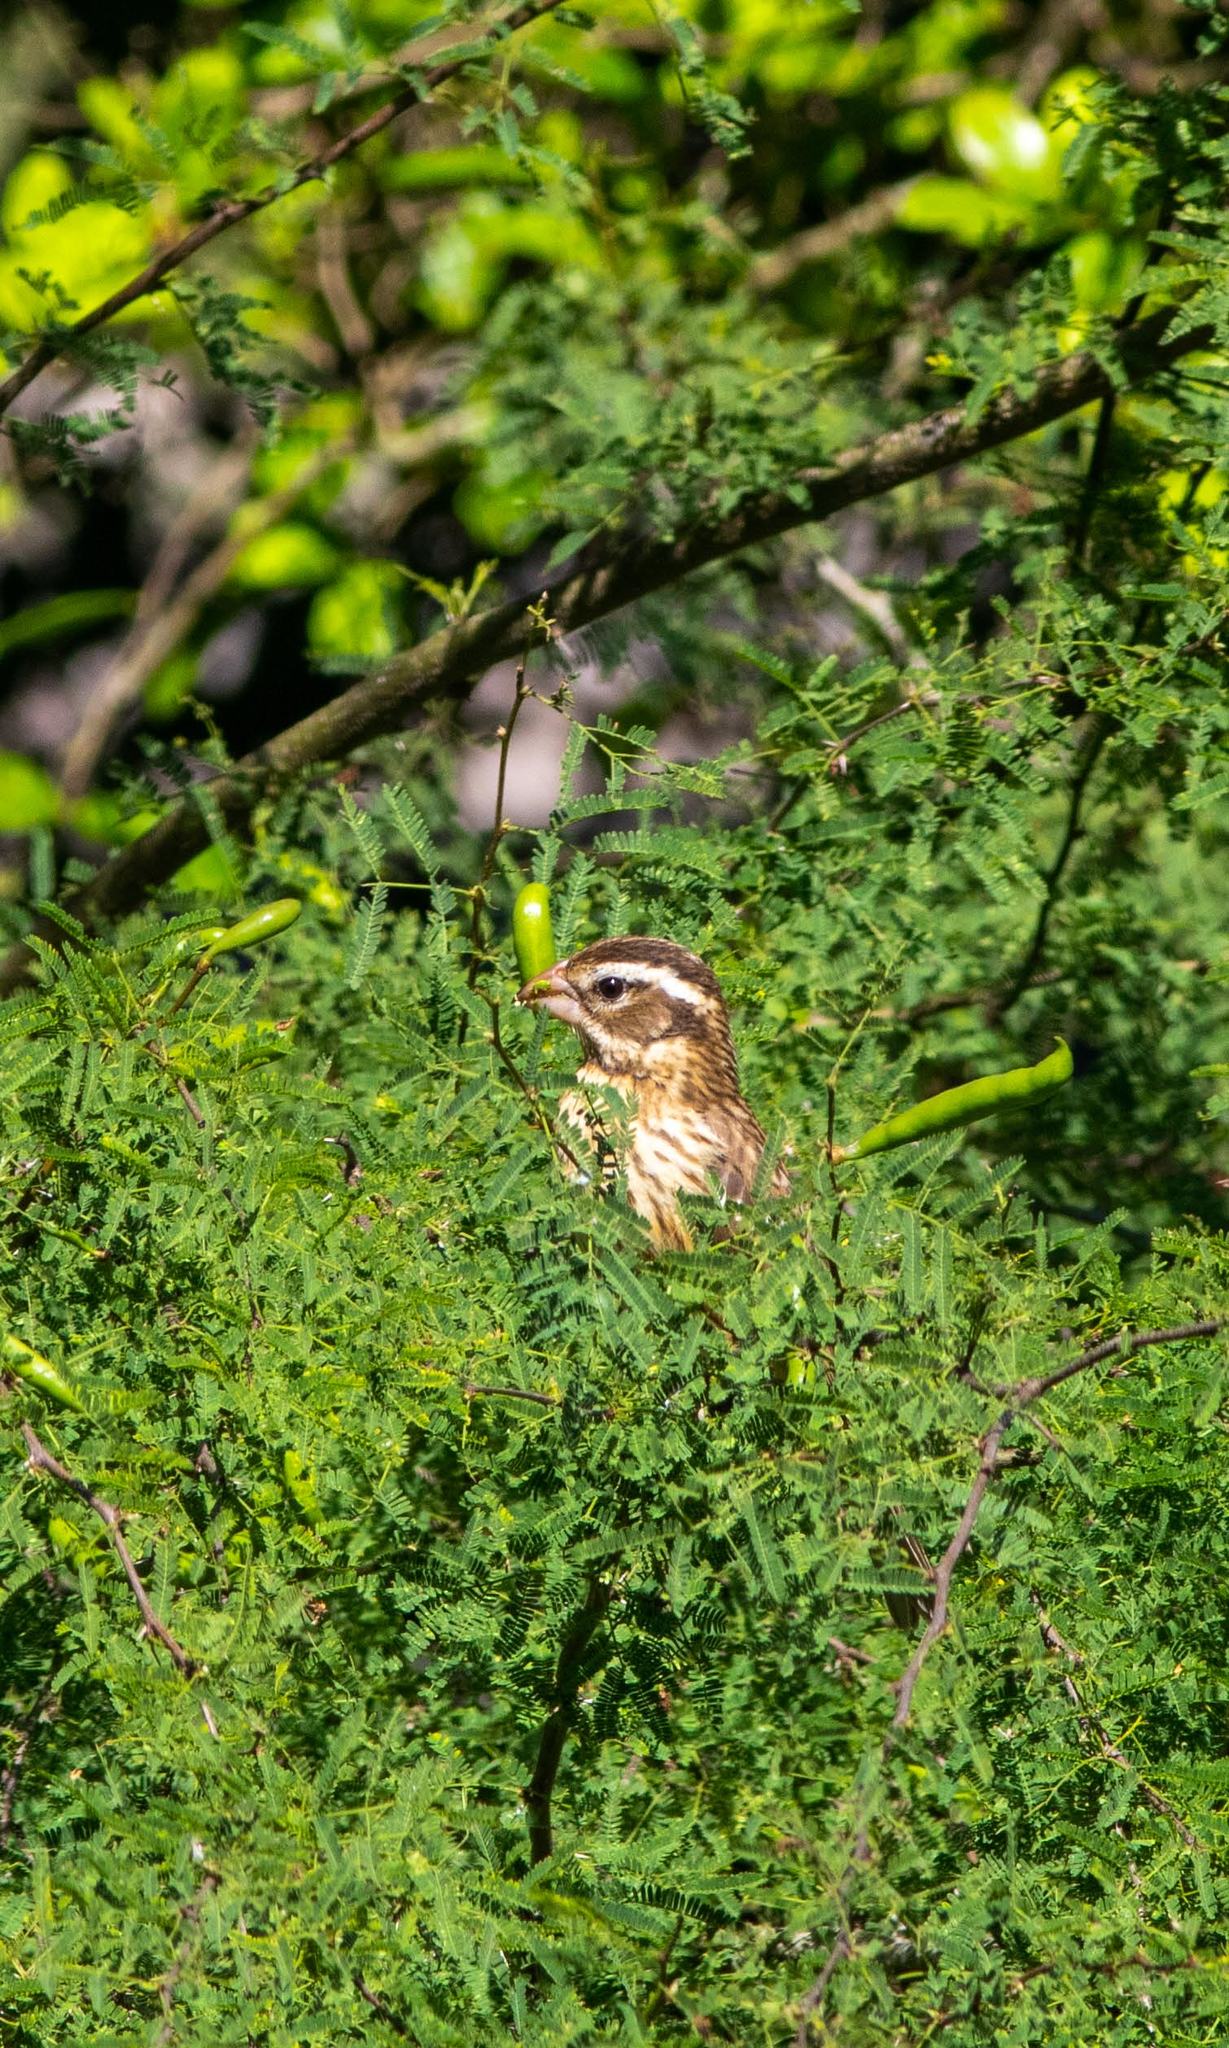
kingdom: Animalia
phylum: Chordata
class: Aves
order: Passeriformes
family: Cardinalidae
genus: Pheucticus
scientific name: Pheucticus ludovicianus
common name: Rose-breasted grosbeak
